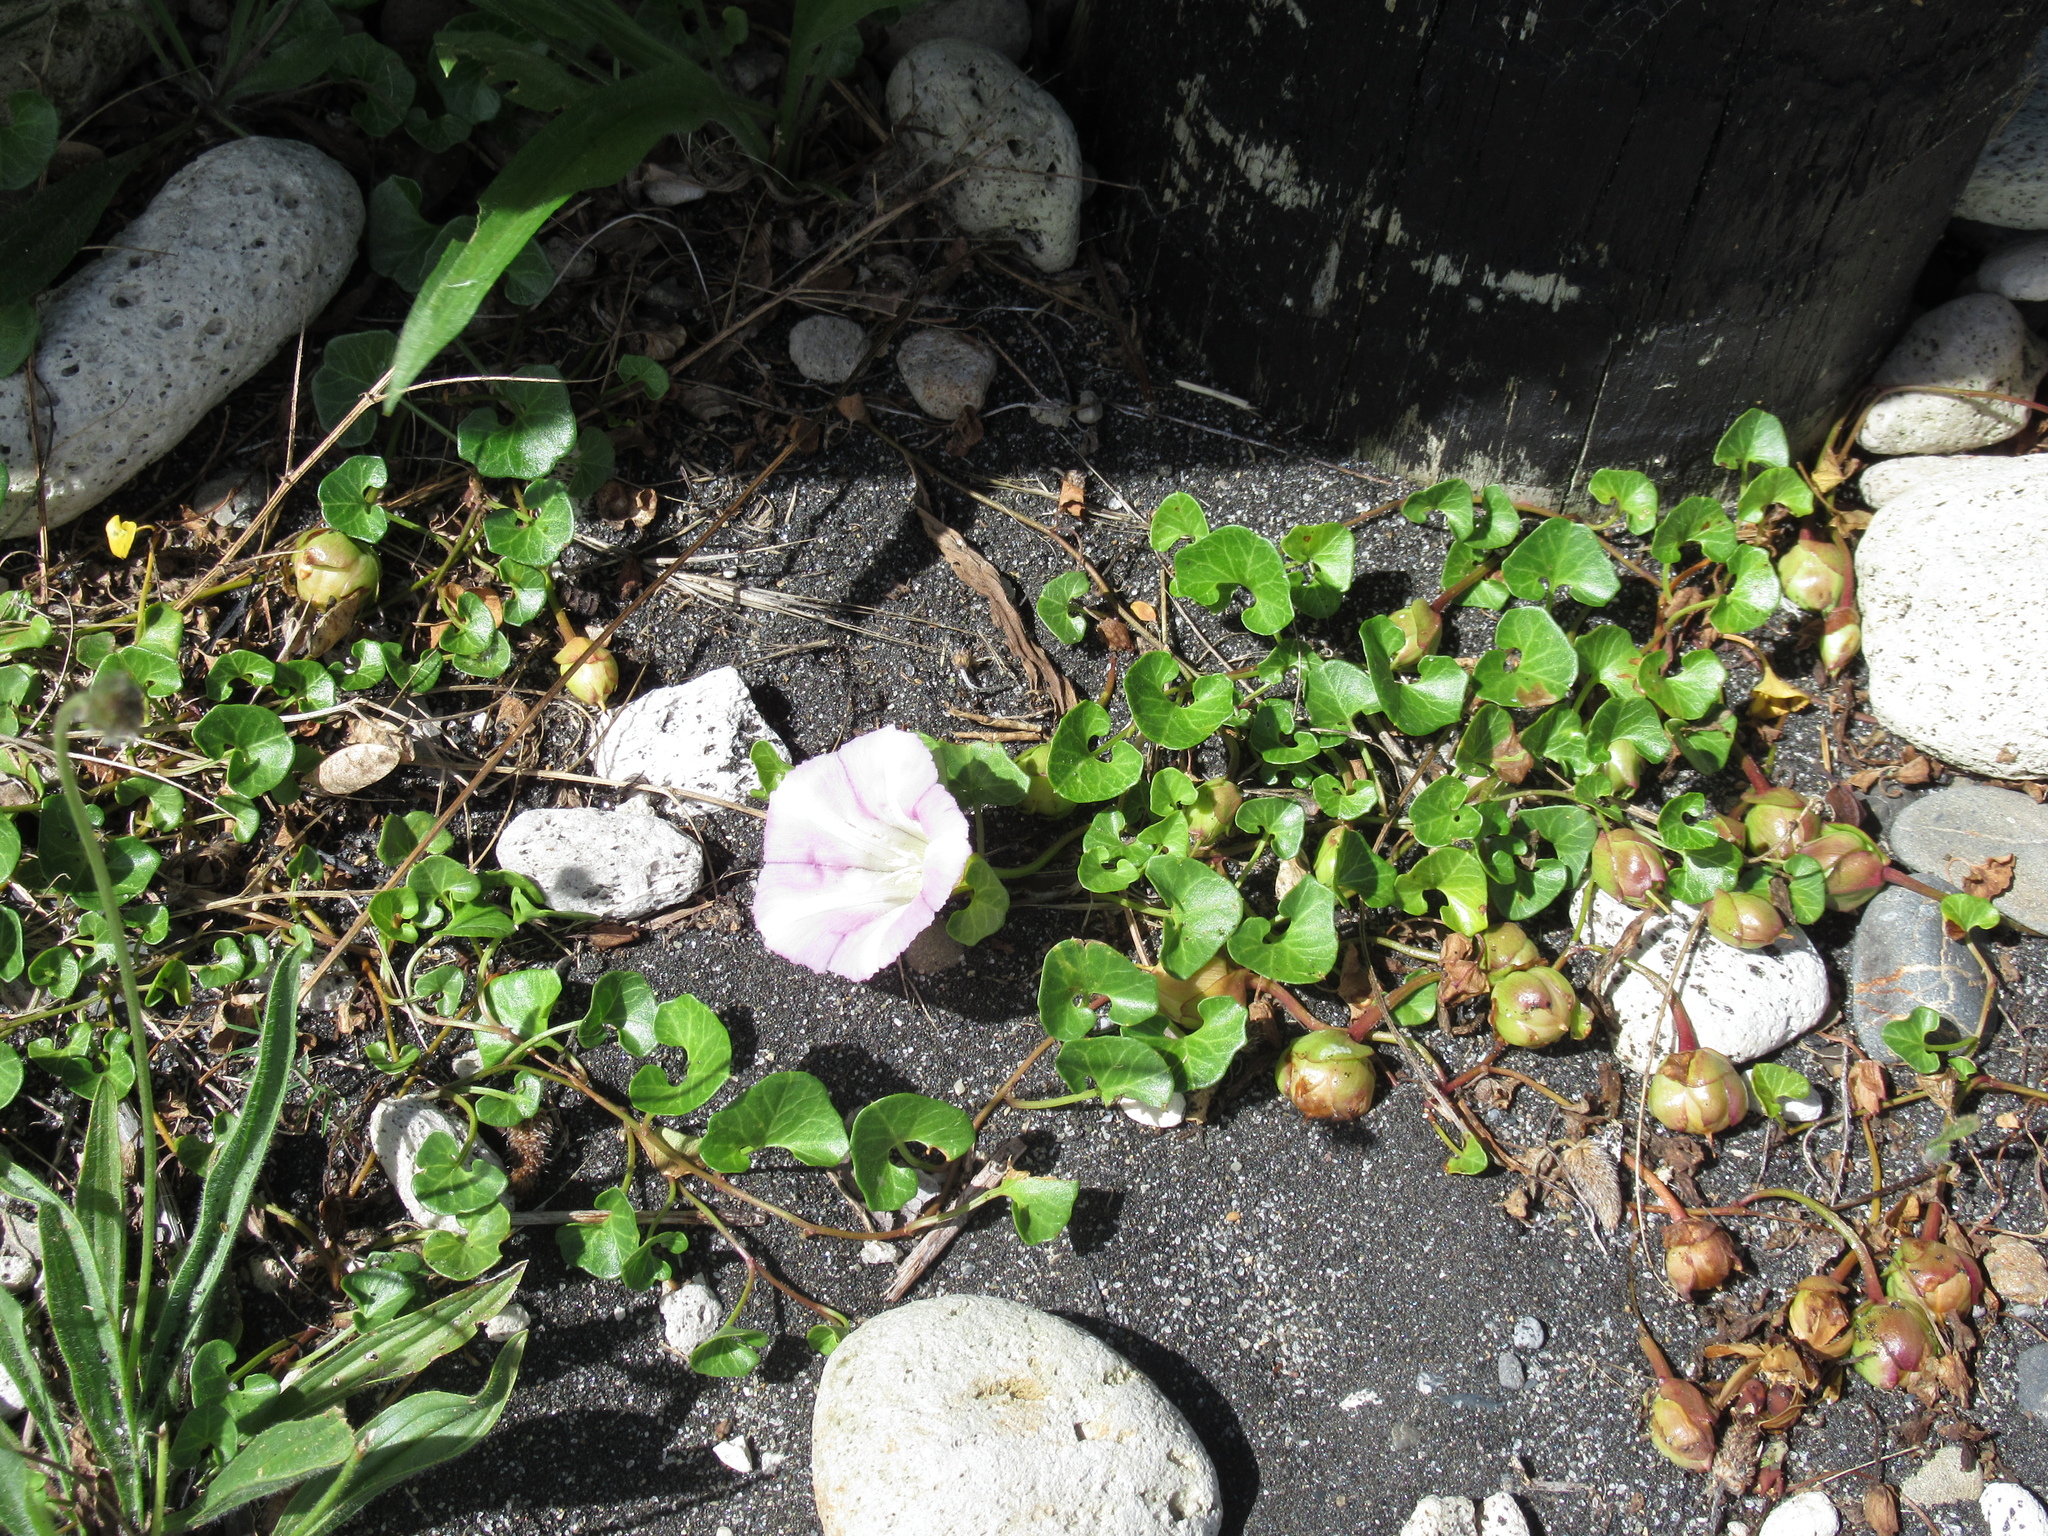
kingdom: Plantae
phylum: Tracheophyta
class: Magnoliopsida
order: Solanales
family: Convolvulaceae
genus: Calystegia
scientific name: Calystegia soldanella
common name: Sea bindweed
